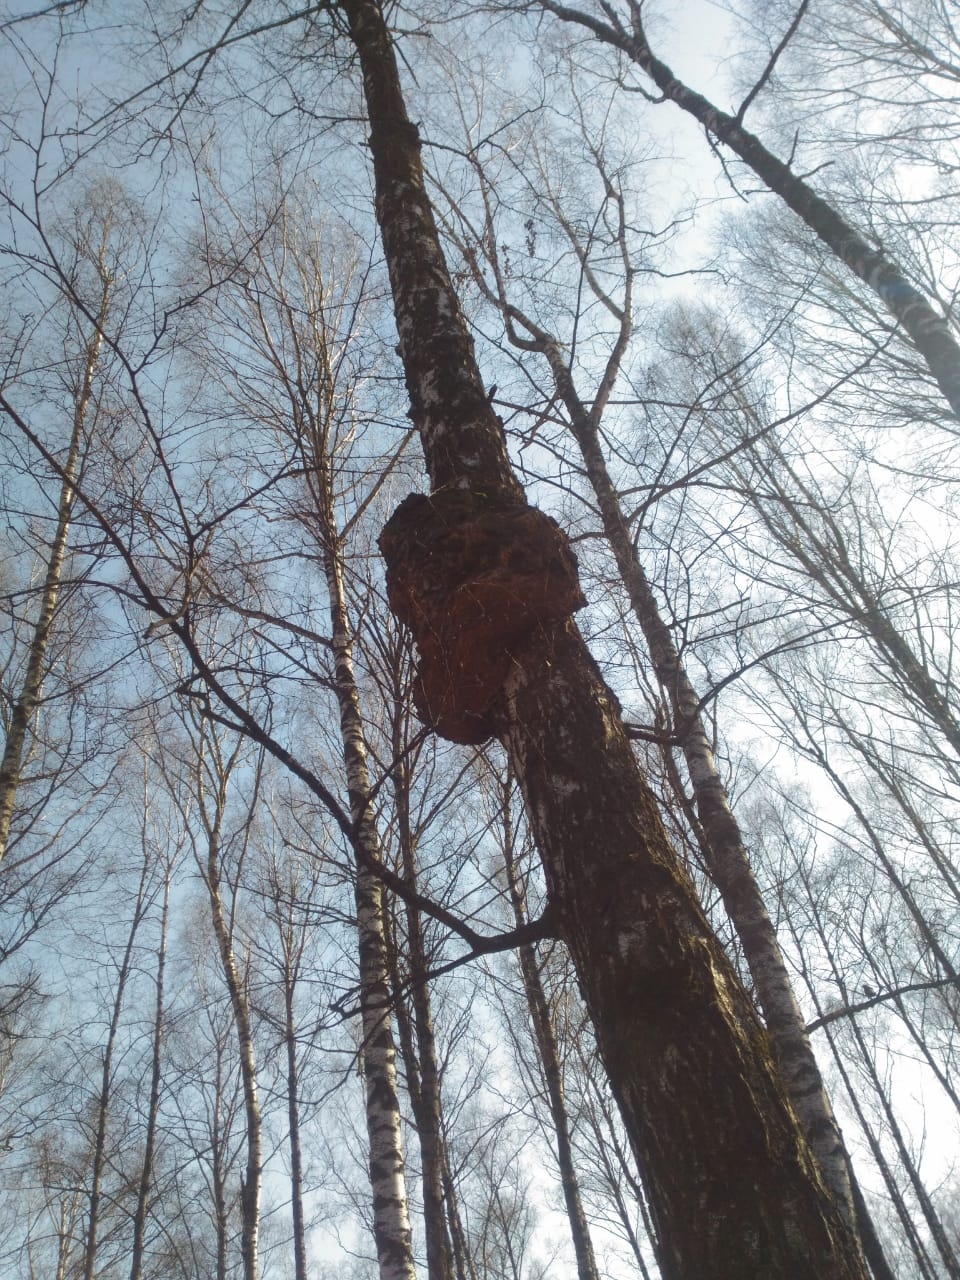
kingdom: Bacteria
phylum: Proteobacteria
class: Alphaproteobacteria
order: Rhizobiales
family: Rhizobiaceae
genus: Rhizobium
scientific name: Rhizobium Agrobacterium radiobacter
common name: Bacterial crown gall
